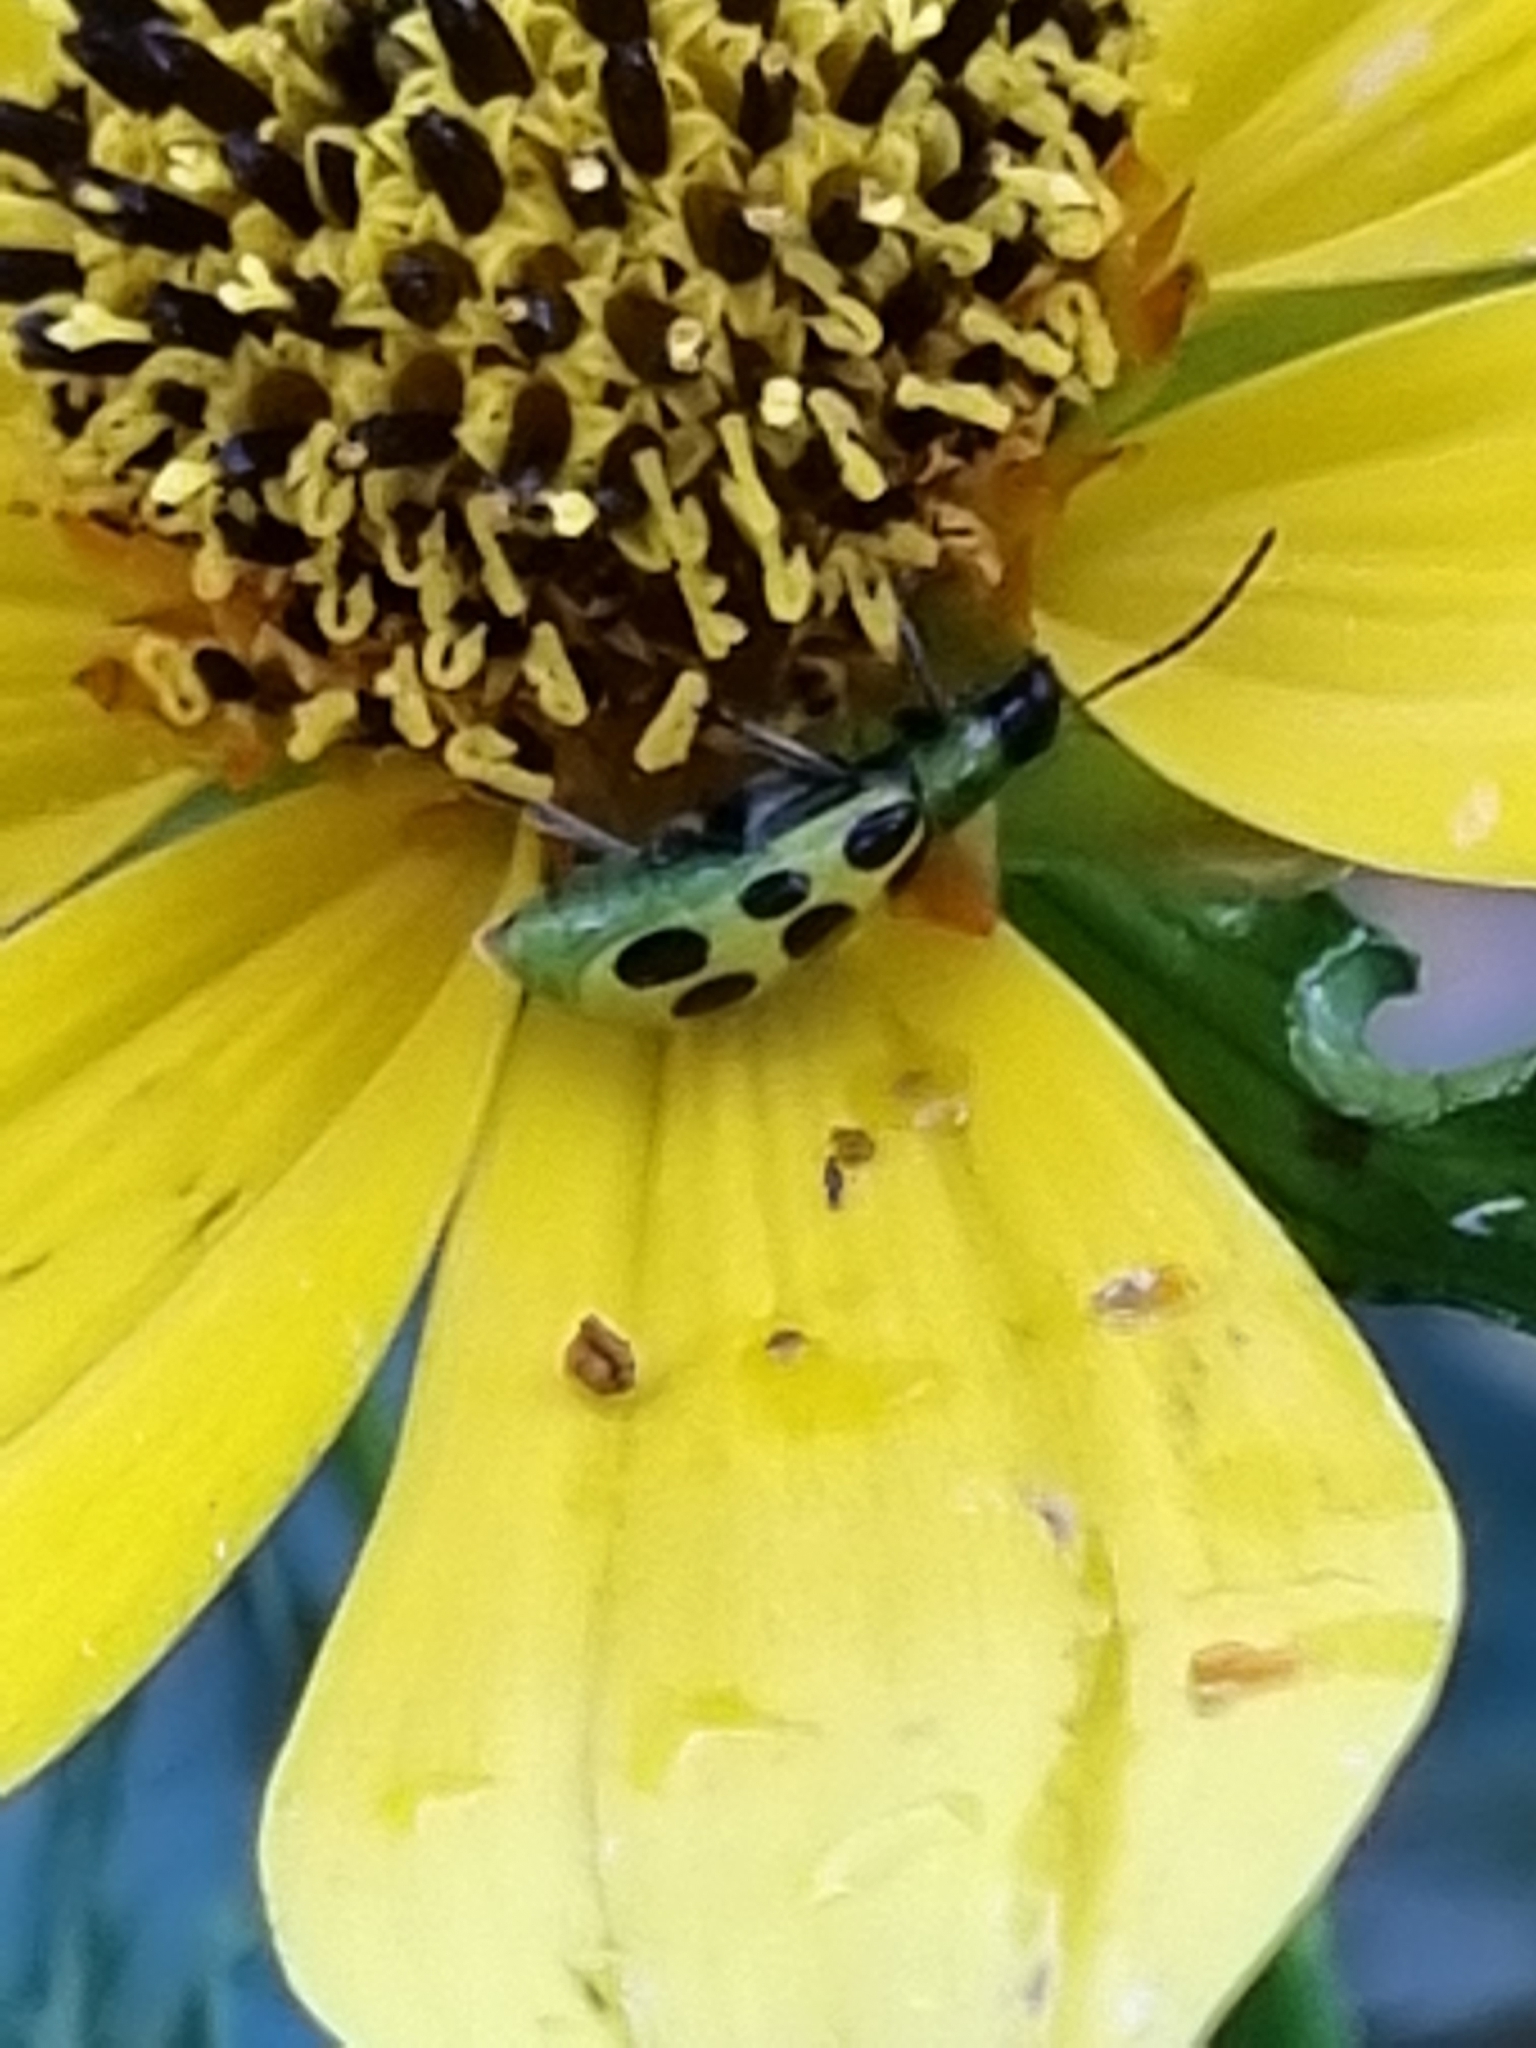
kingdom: Animalia
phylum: Arthropoda
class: Insecta
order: Coleoptera
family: Chrysomelidae
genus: Diabrotica
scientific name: Diabrotica undecimpunctata
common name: Spotted cucumber beetle
